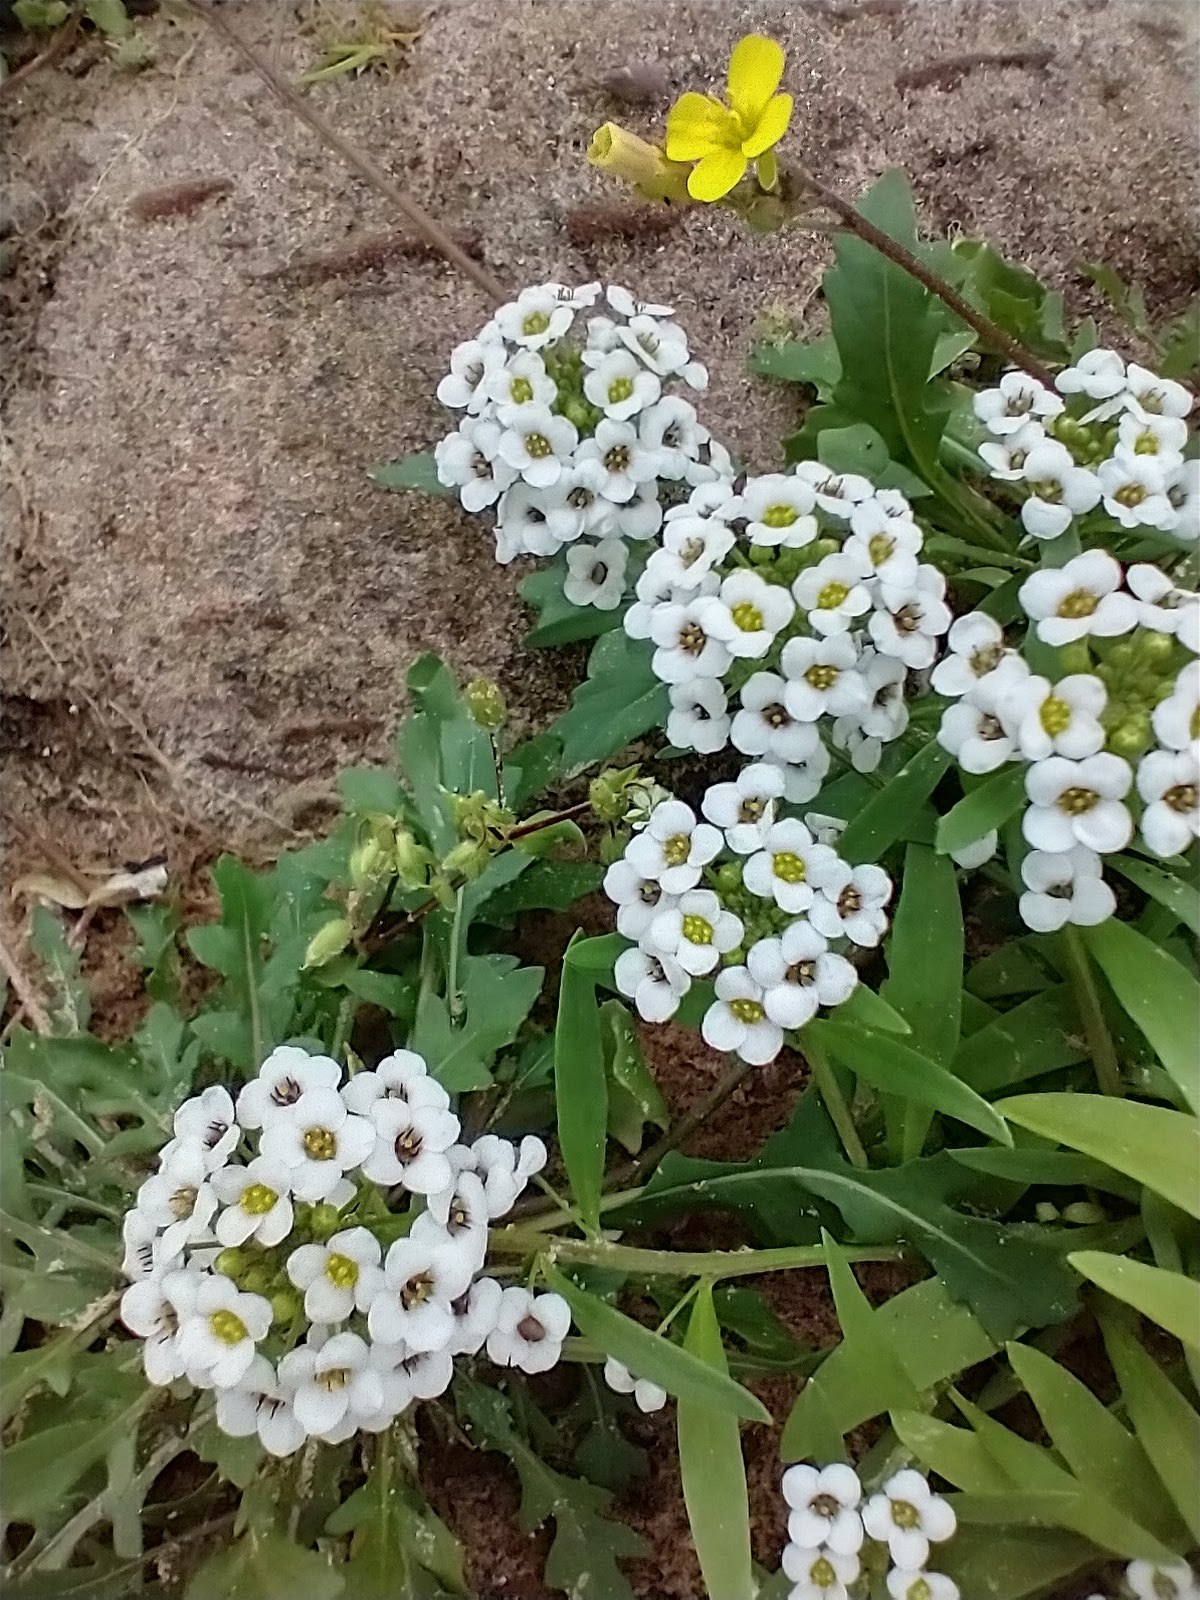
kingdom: Plantae
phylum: Tracheophyta
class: Magnoliopsida
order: Brassicales
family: Brassicaceae
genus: Lobularia
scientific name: Lobularia maritima
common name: Sweet alison
